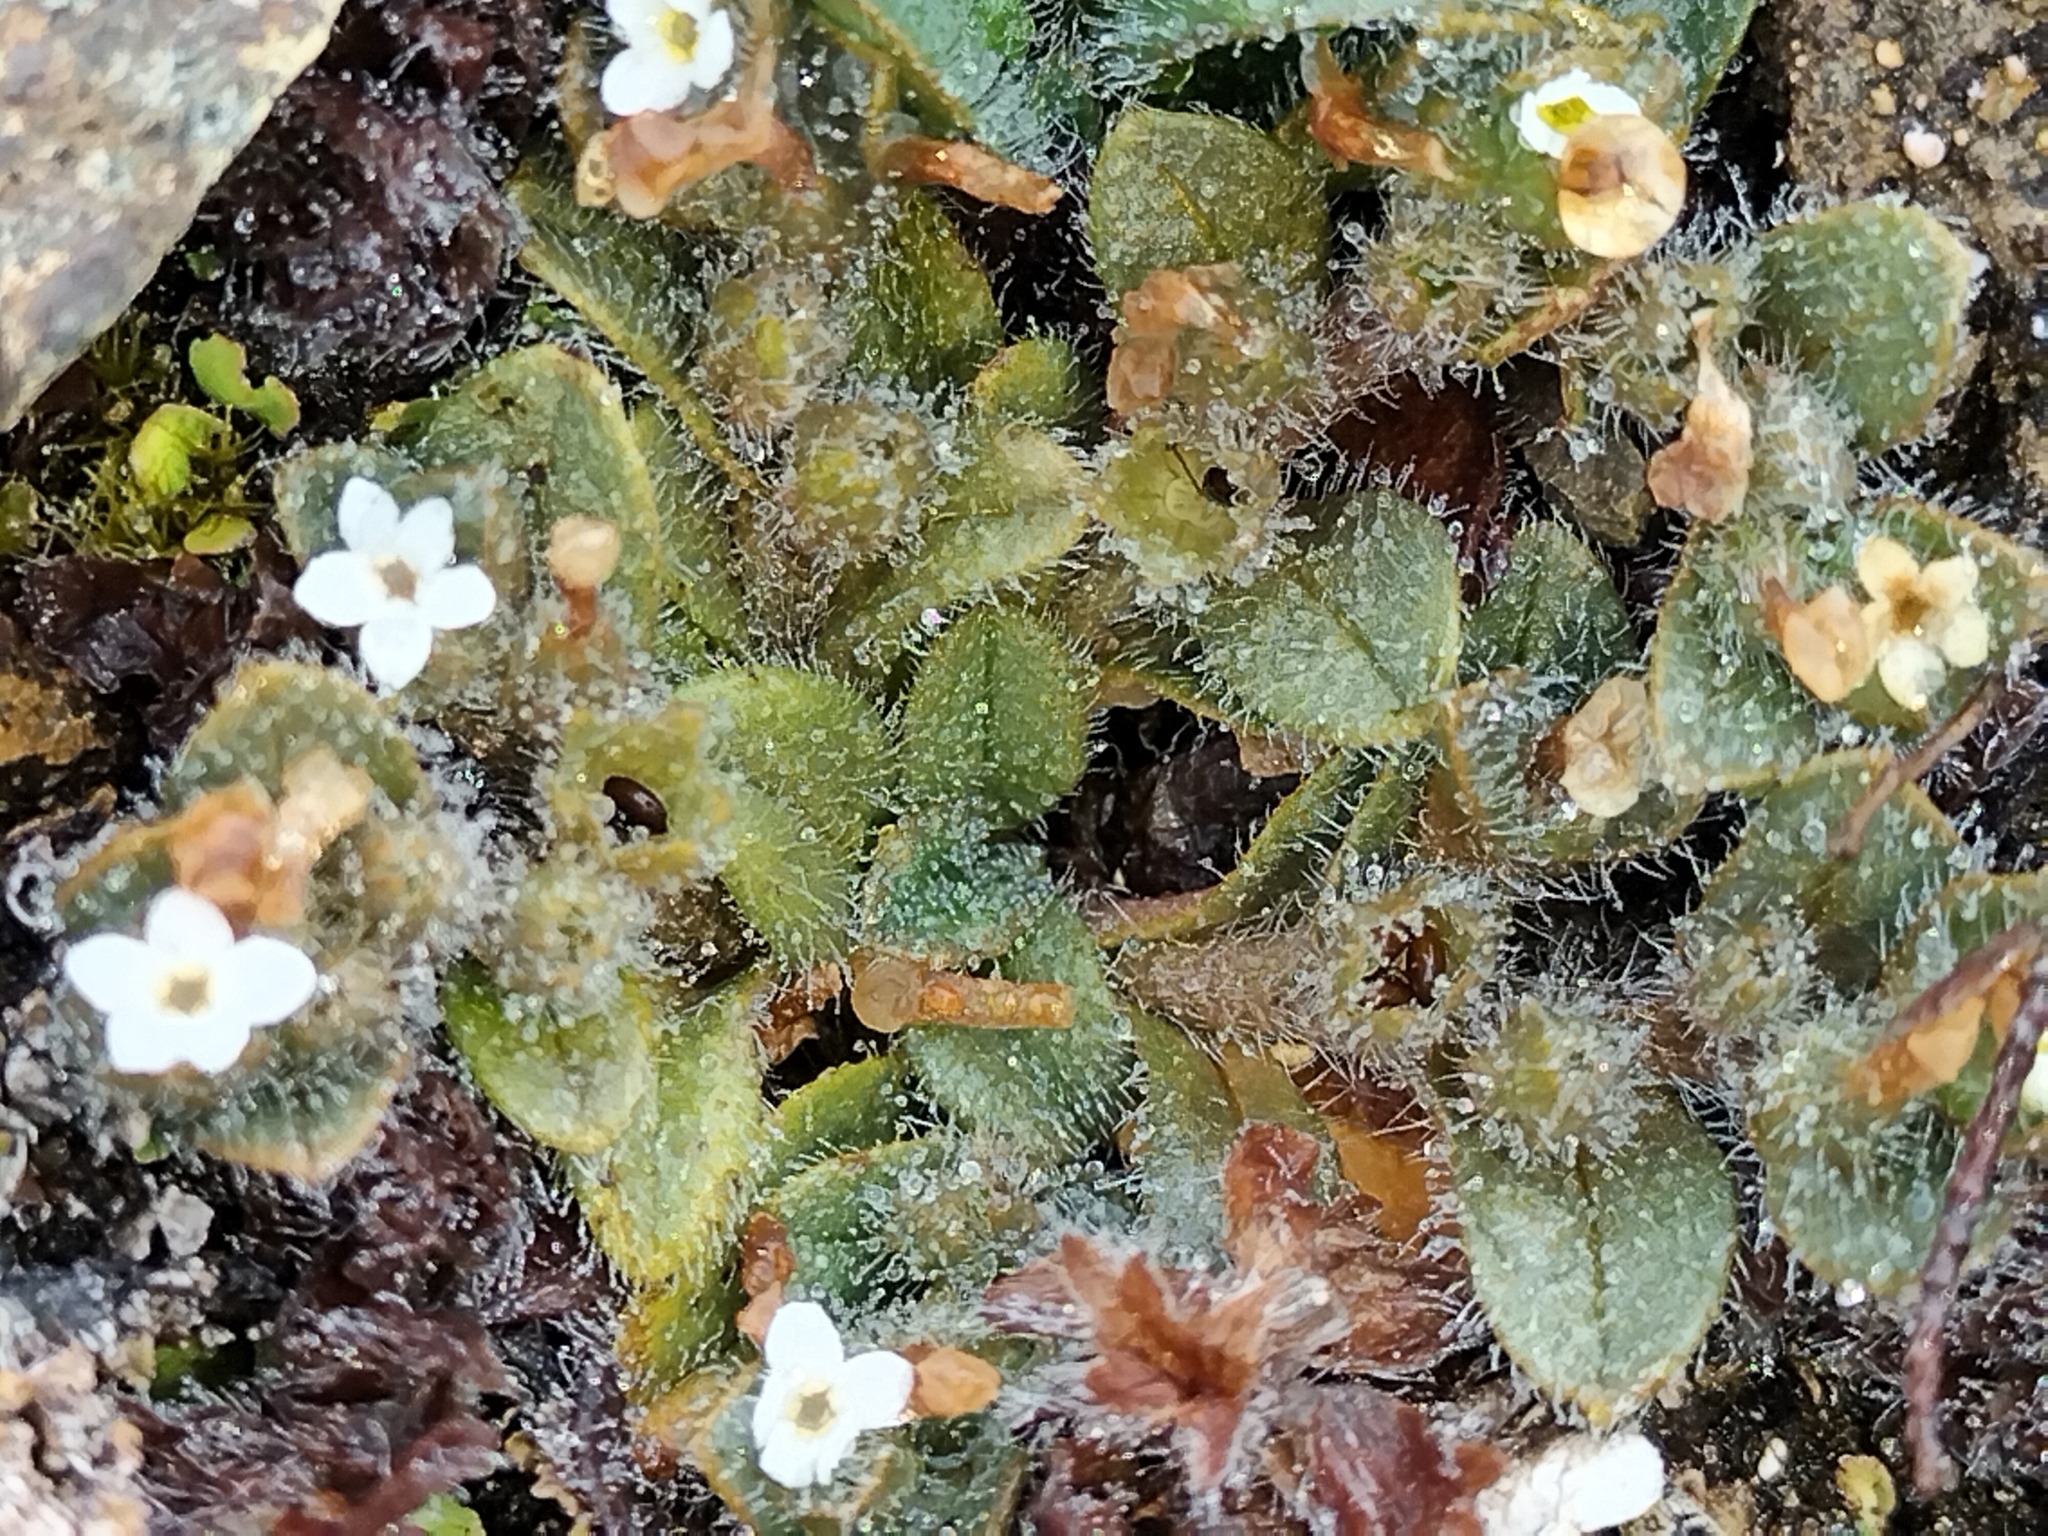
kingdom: Plantae
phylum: Tracheophyta
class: Magnoliopsida
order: Boraginales
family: Boraginaceae
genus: Myosotis
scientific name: Myosotis antarctica
